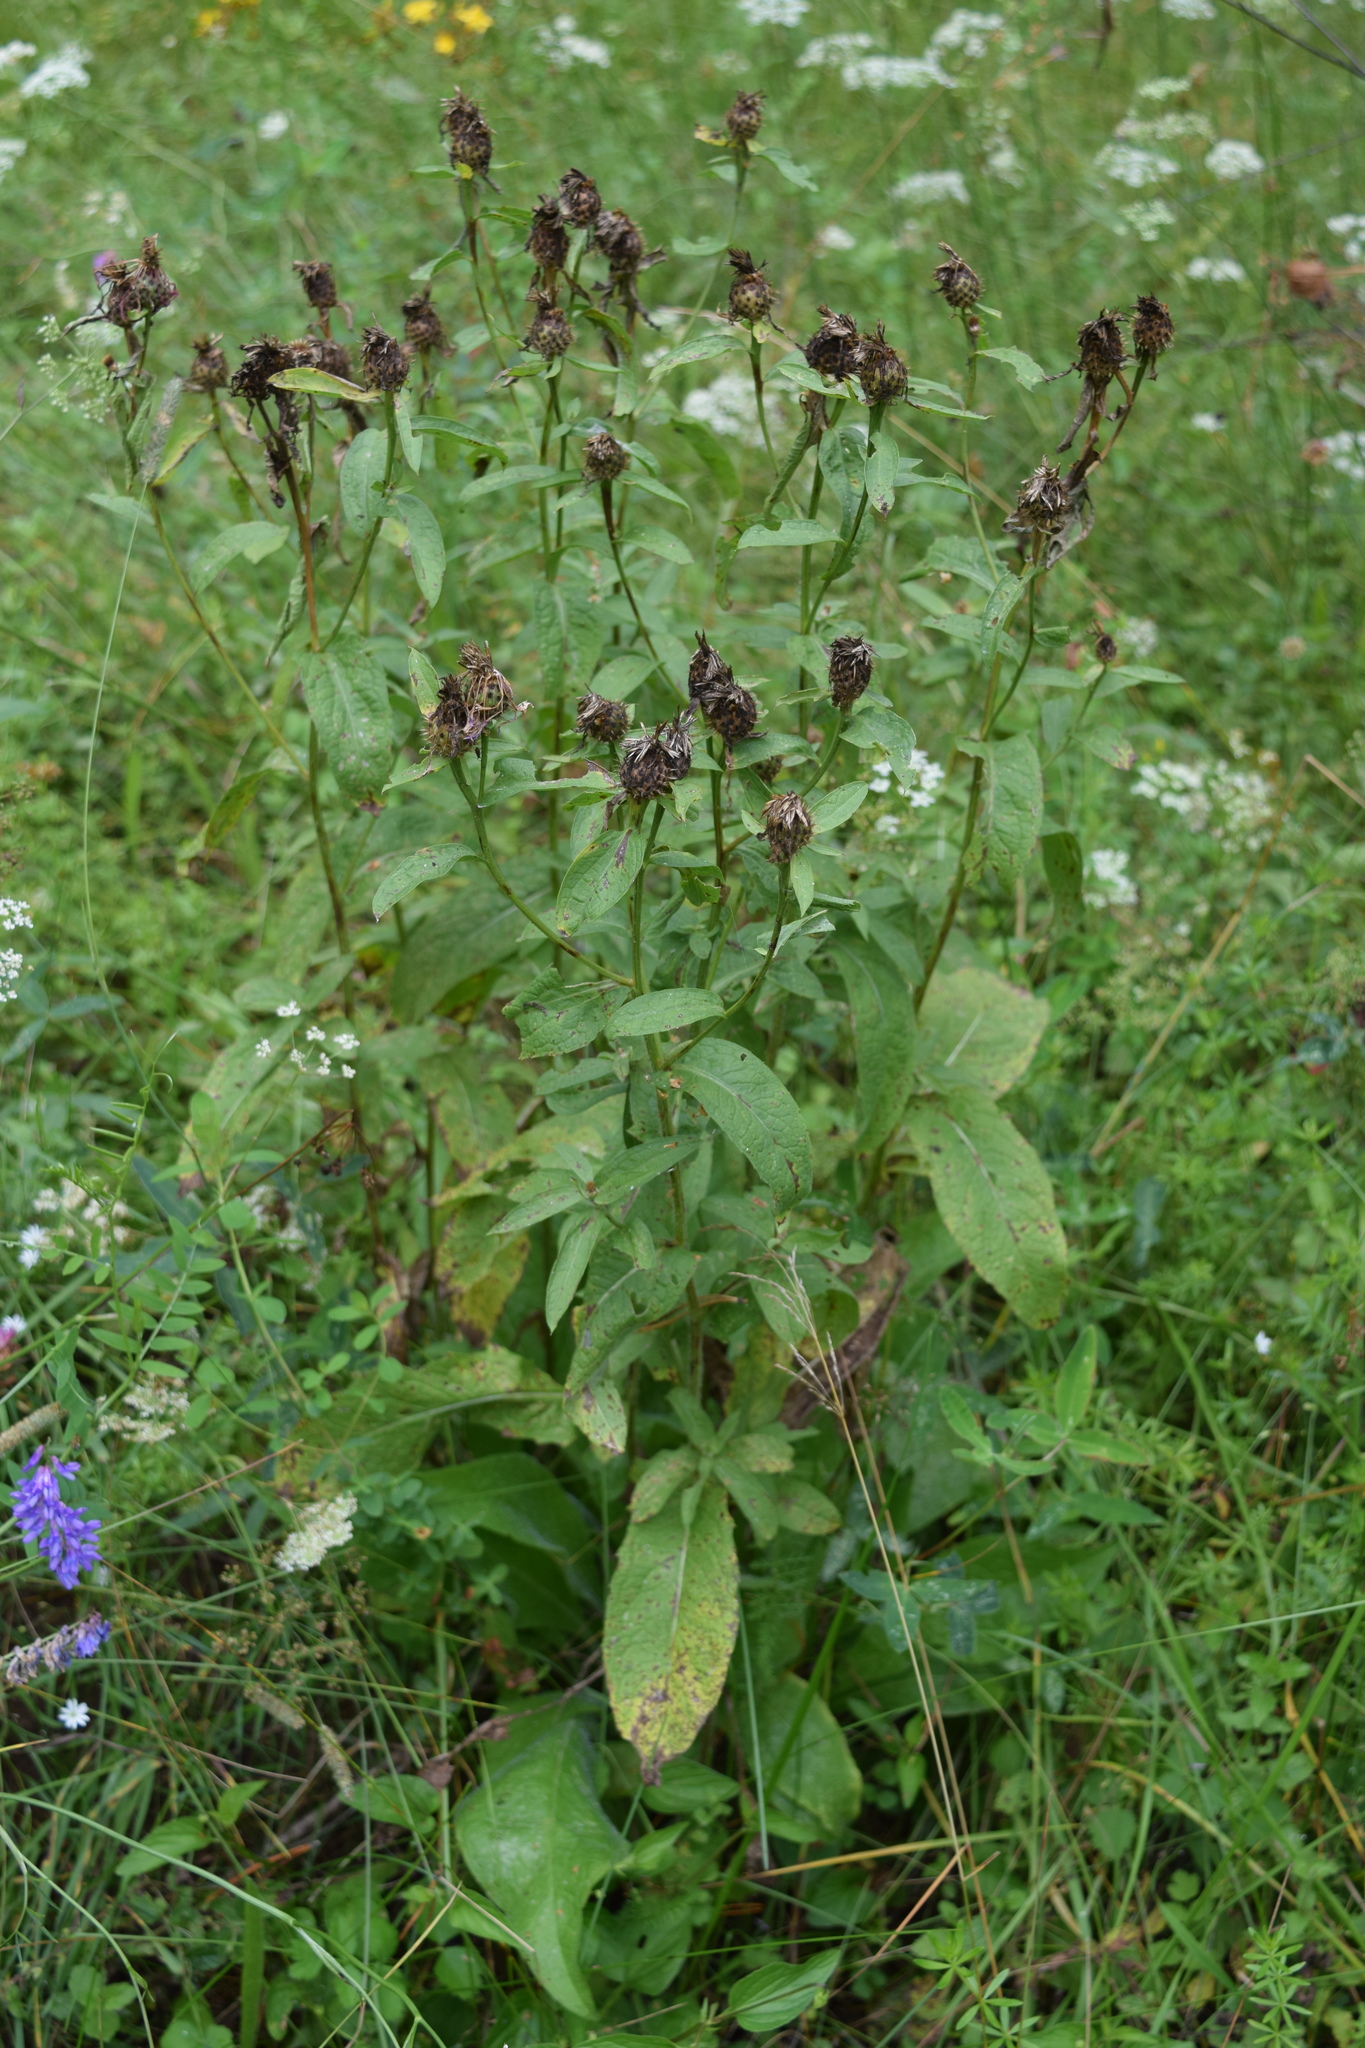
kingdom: Plantae
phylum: Tracheophyta
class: Magnoliopsida
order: Asterales
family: Asteraceae
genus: Centaurea
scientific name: Centaurea phrygia
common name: Wig knapweed
